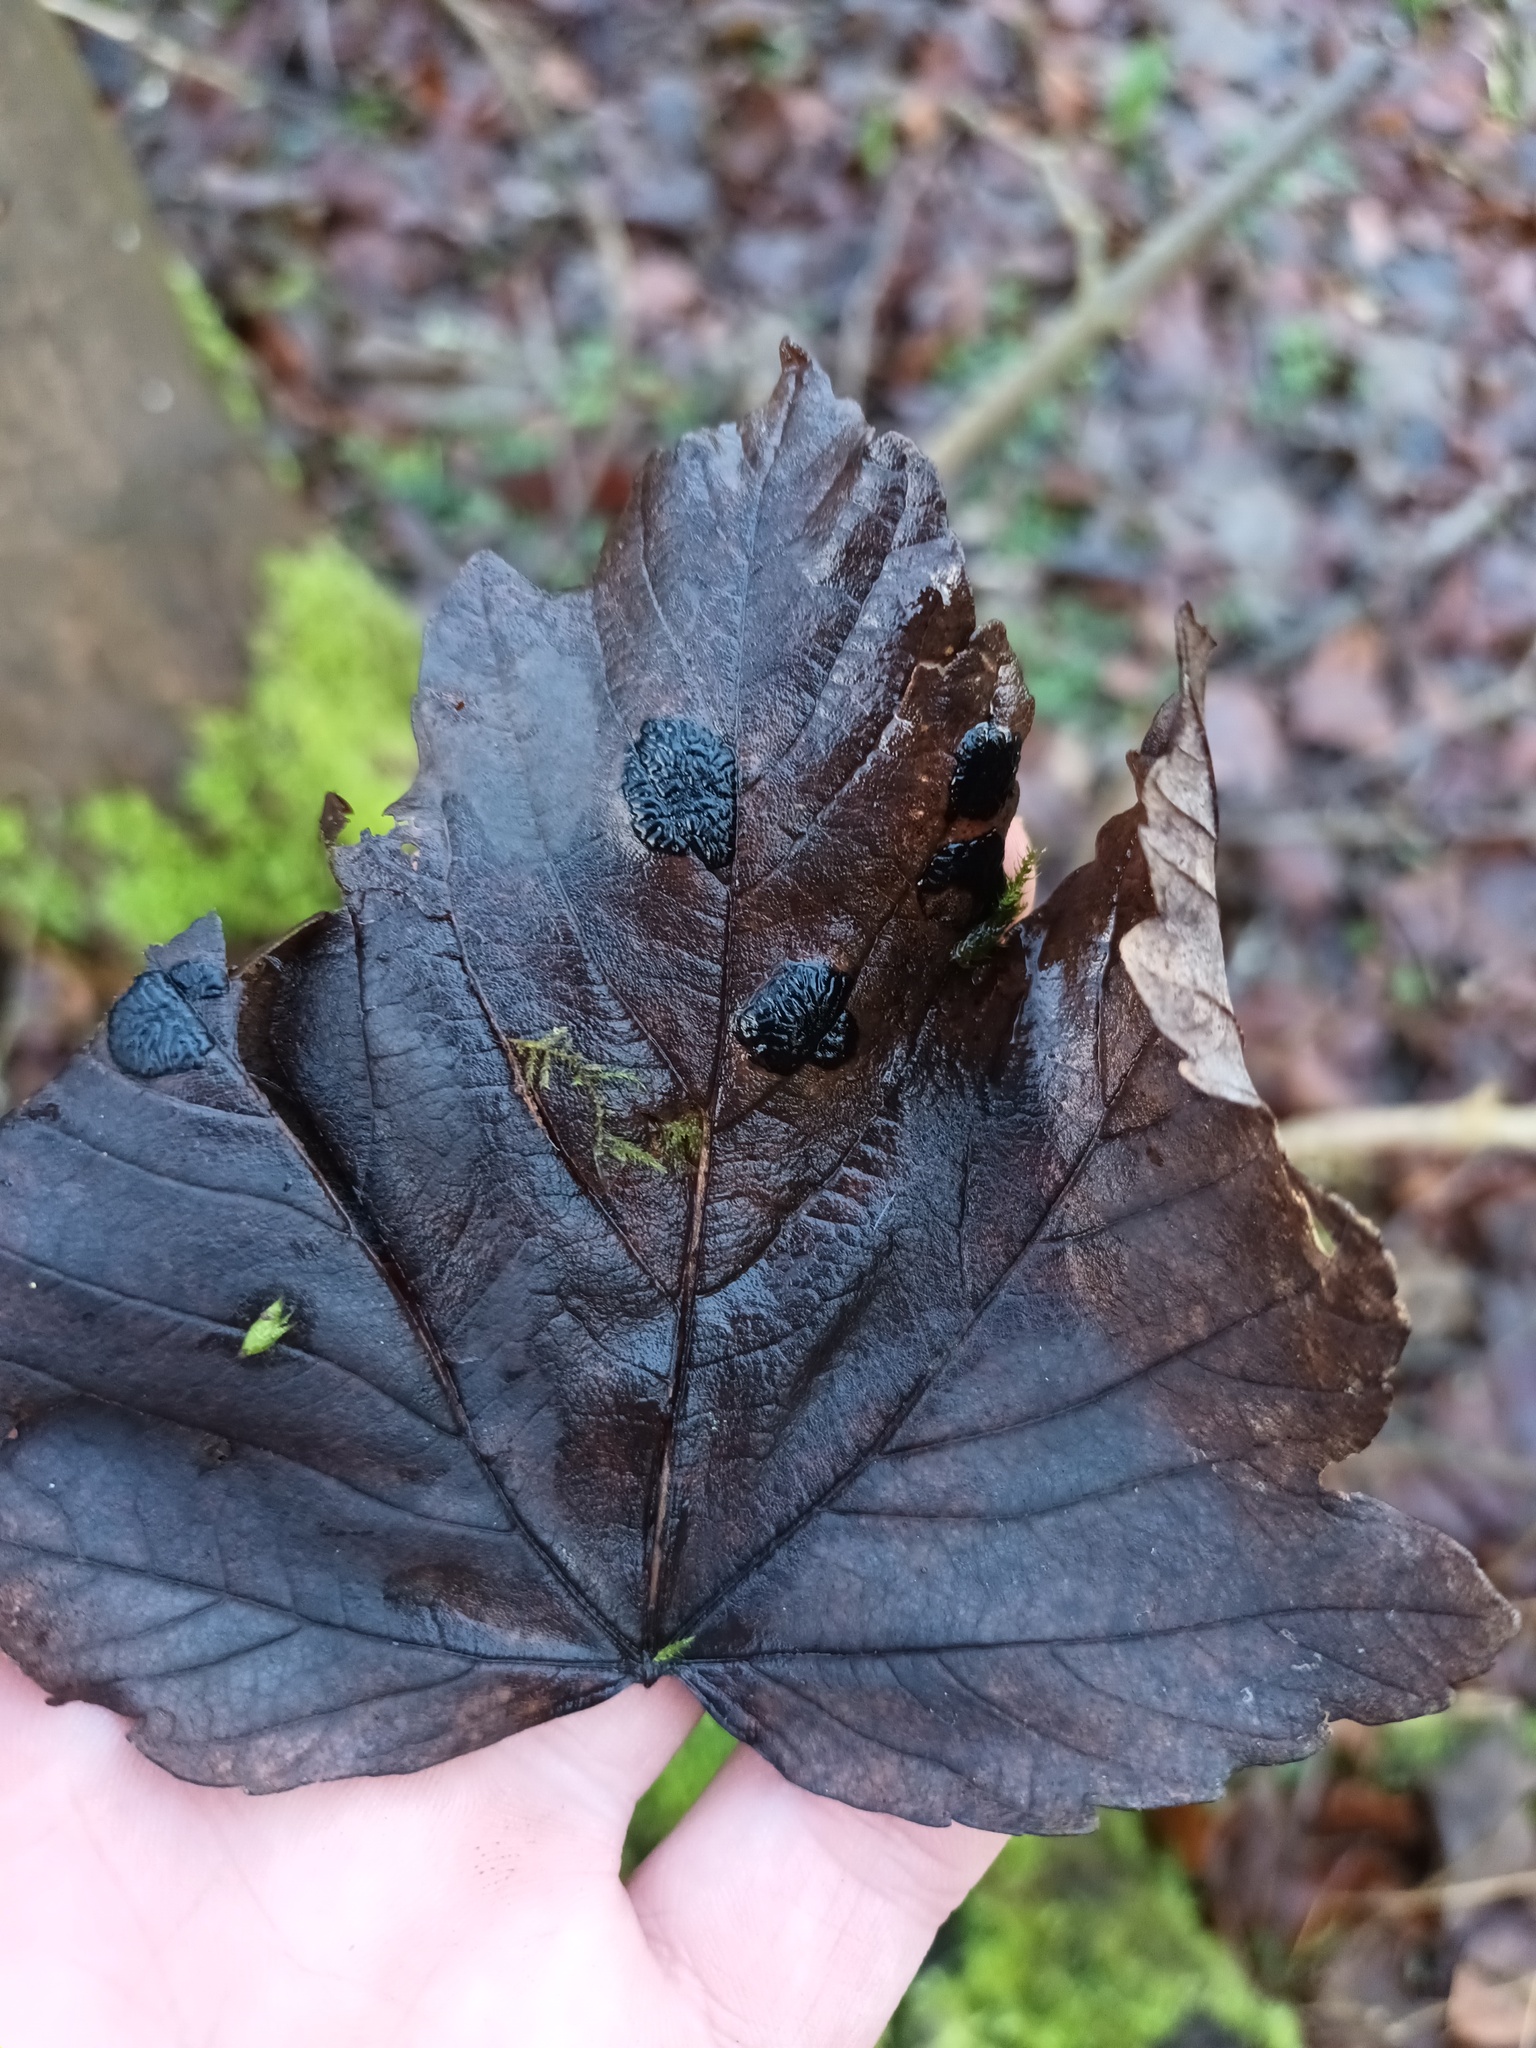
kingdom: Fungi
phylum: Ascomycota
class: Leotiomycetes
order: Rhytismatales
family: Rhytismataceae
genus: Rhytisma
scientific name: Rhytisma acerinum
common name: European tar spot
